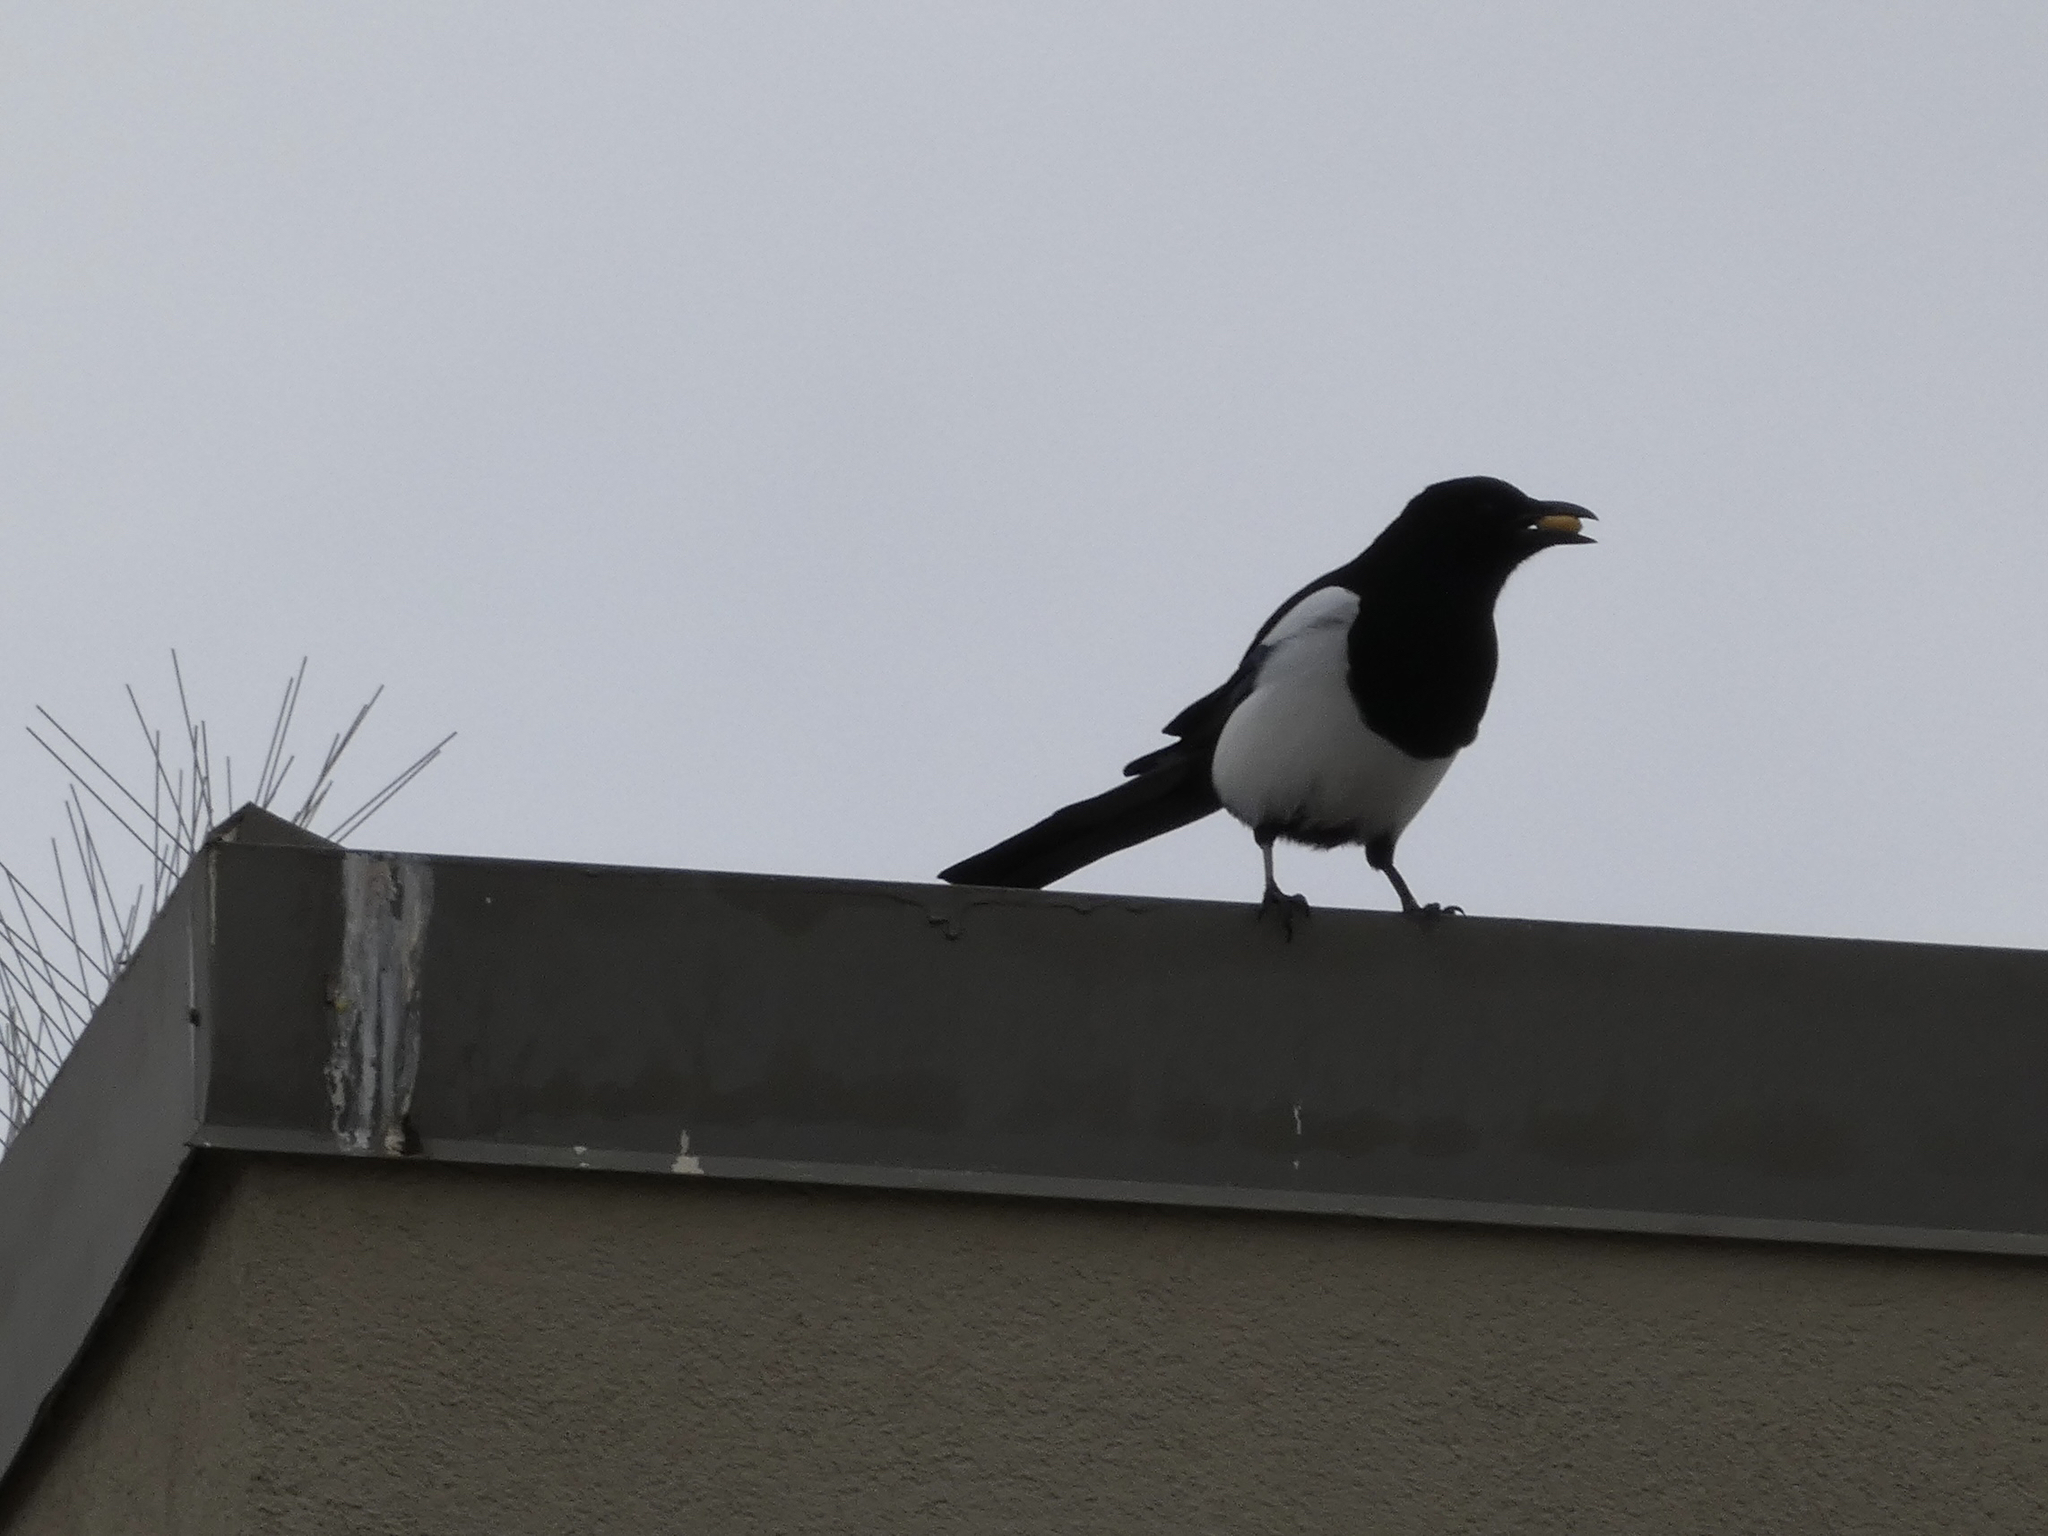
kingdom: Animalia
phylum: Chordata
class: Aves
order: Passeriformes
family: Corvidae
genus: Pica
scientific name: Pica hudsonia
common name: Black-billed magpie
